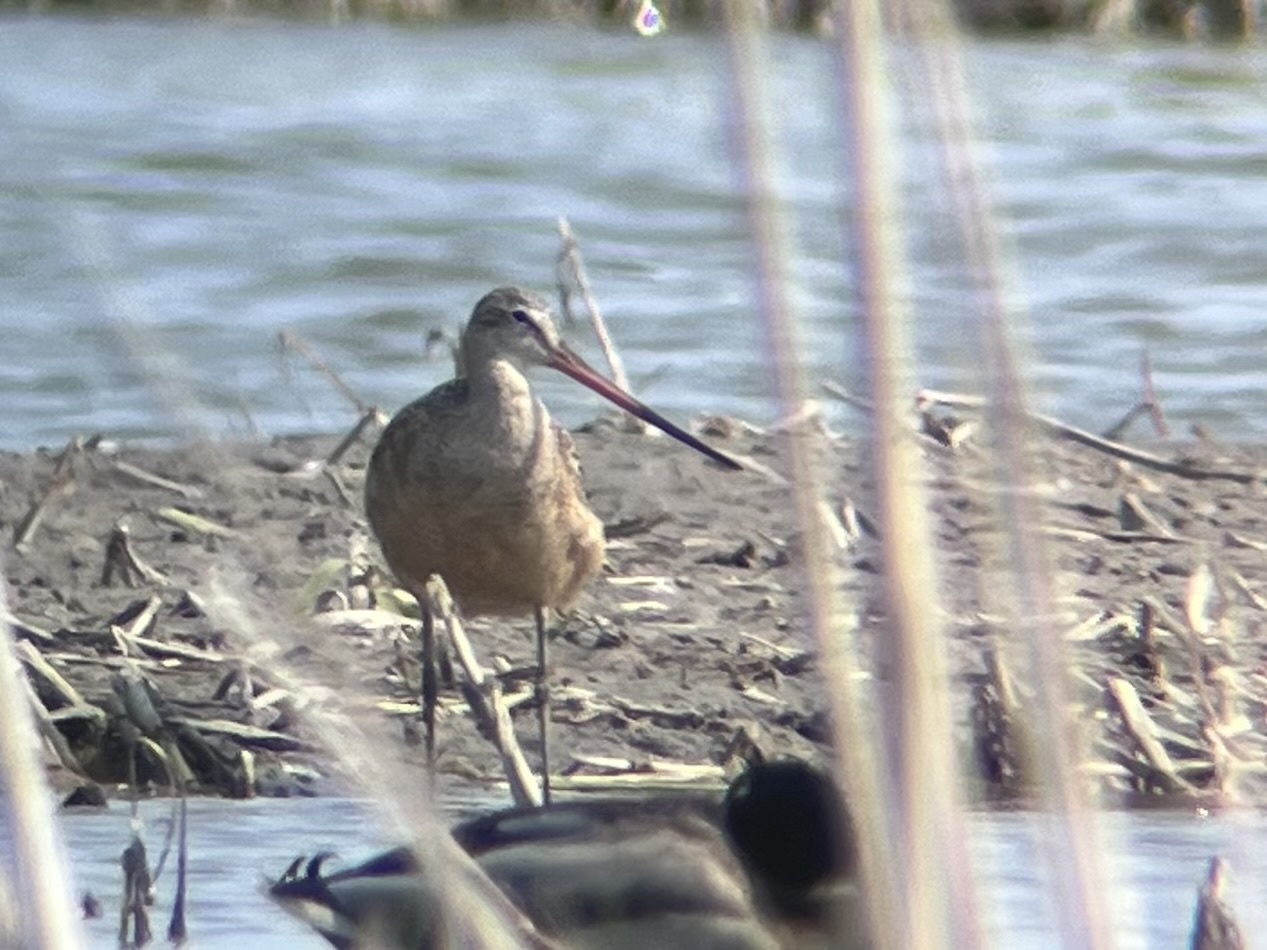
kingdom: Animalia
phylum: Chordata
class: Aves
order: Charadriiformes
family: Scolopacidae
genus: Limosa
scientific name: Limosa fedoa
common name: Marbled godwit
